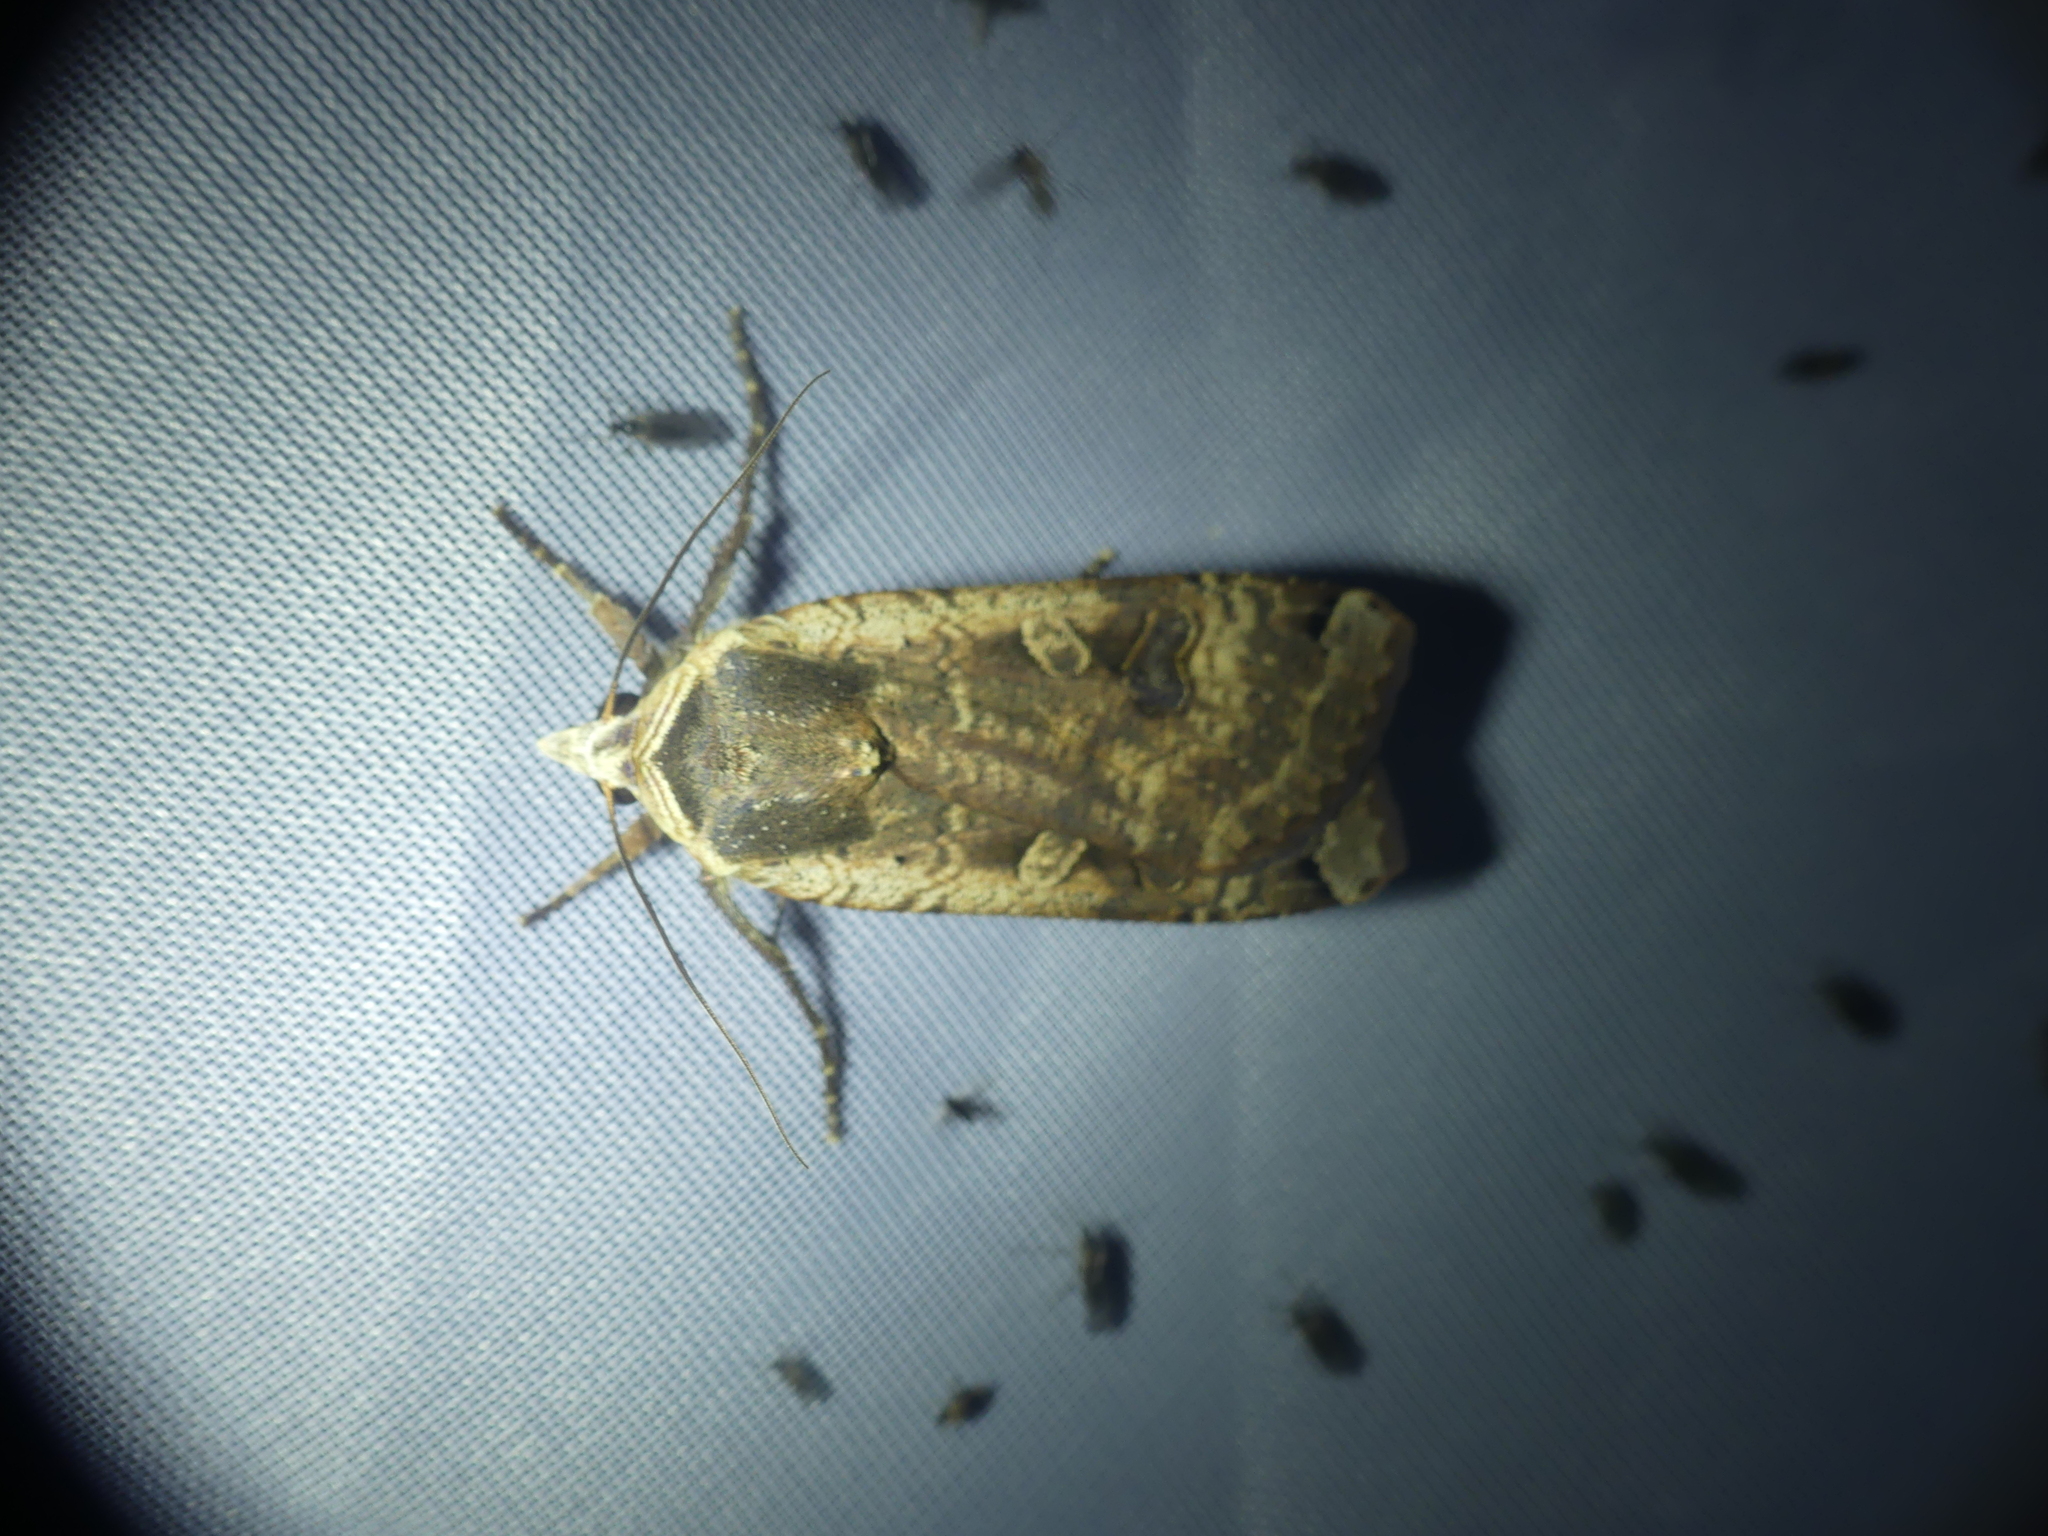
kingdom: Animalia
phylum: Arthropoda
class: Insecta
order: Lepidoptera
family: Noctuidae
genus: Noctua
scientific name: Noctua pronuba
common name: Large yellow underwing
